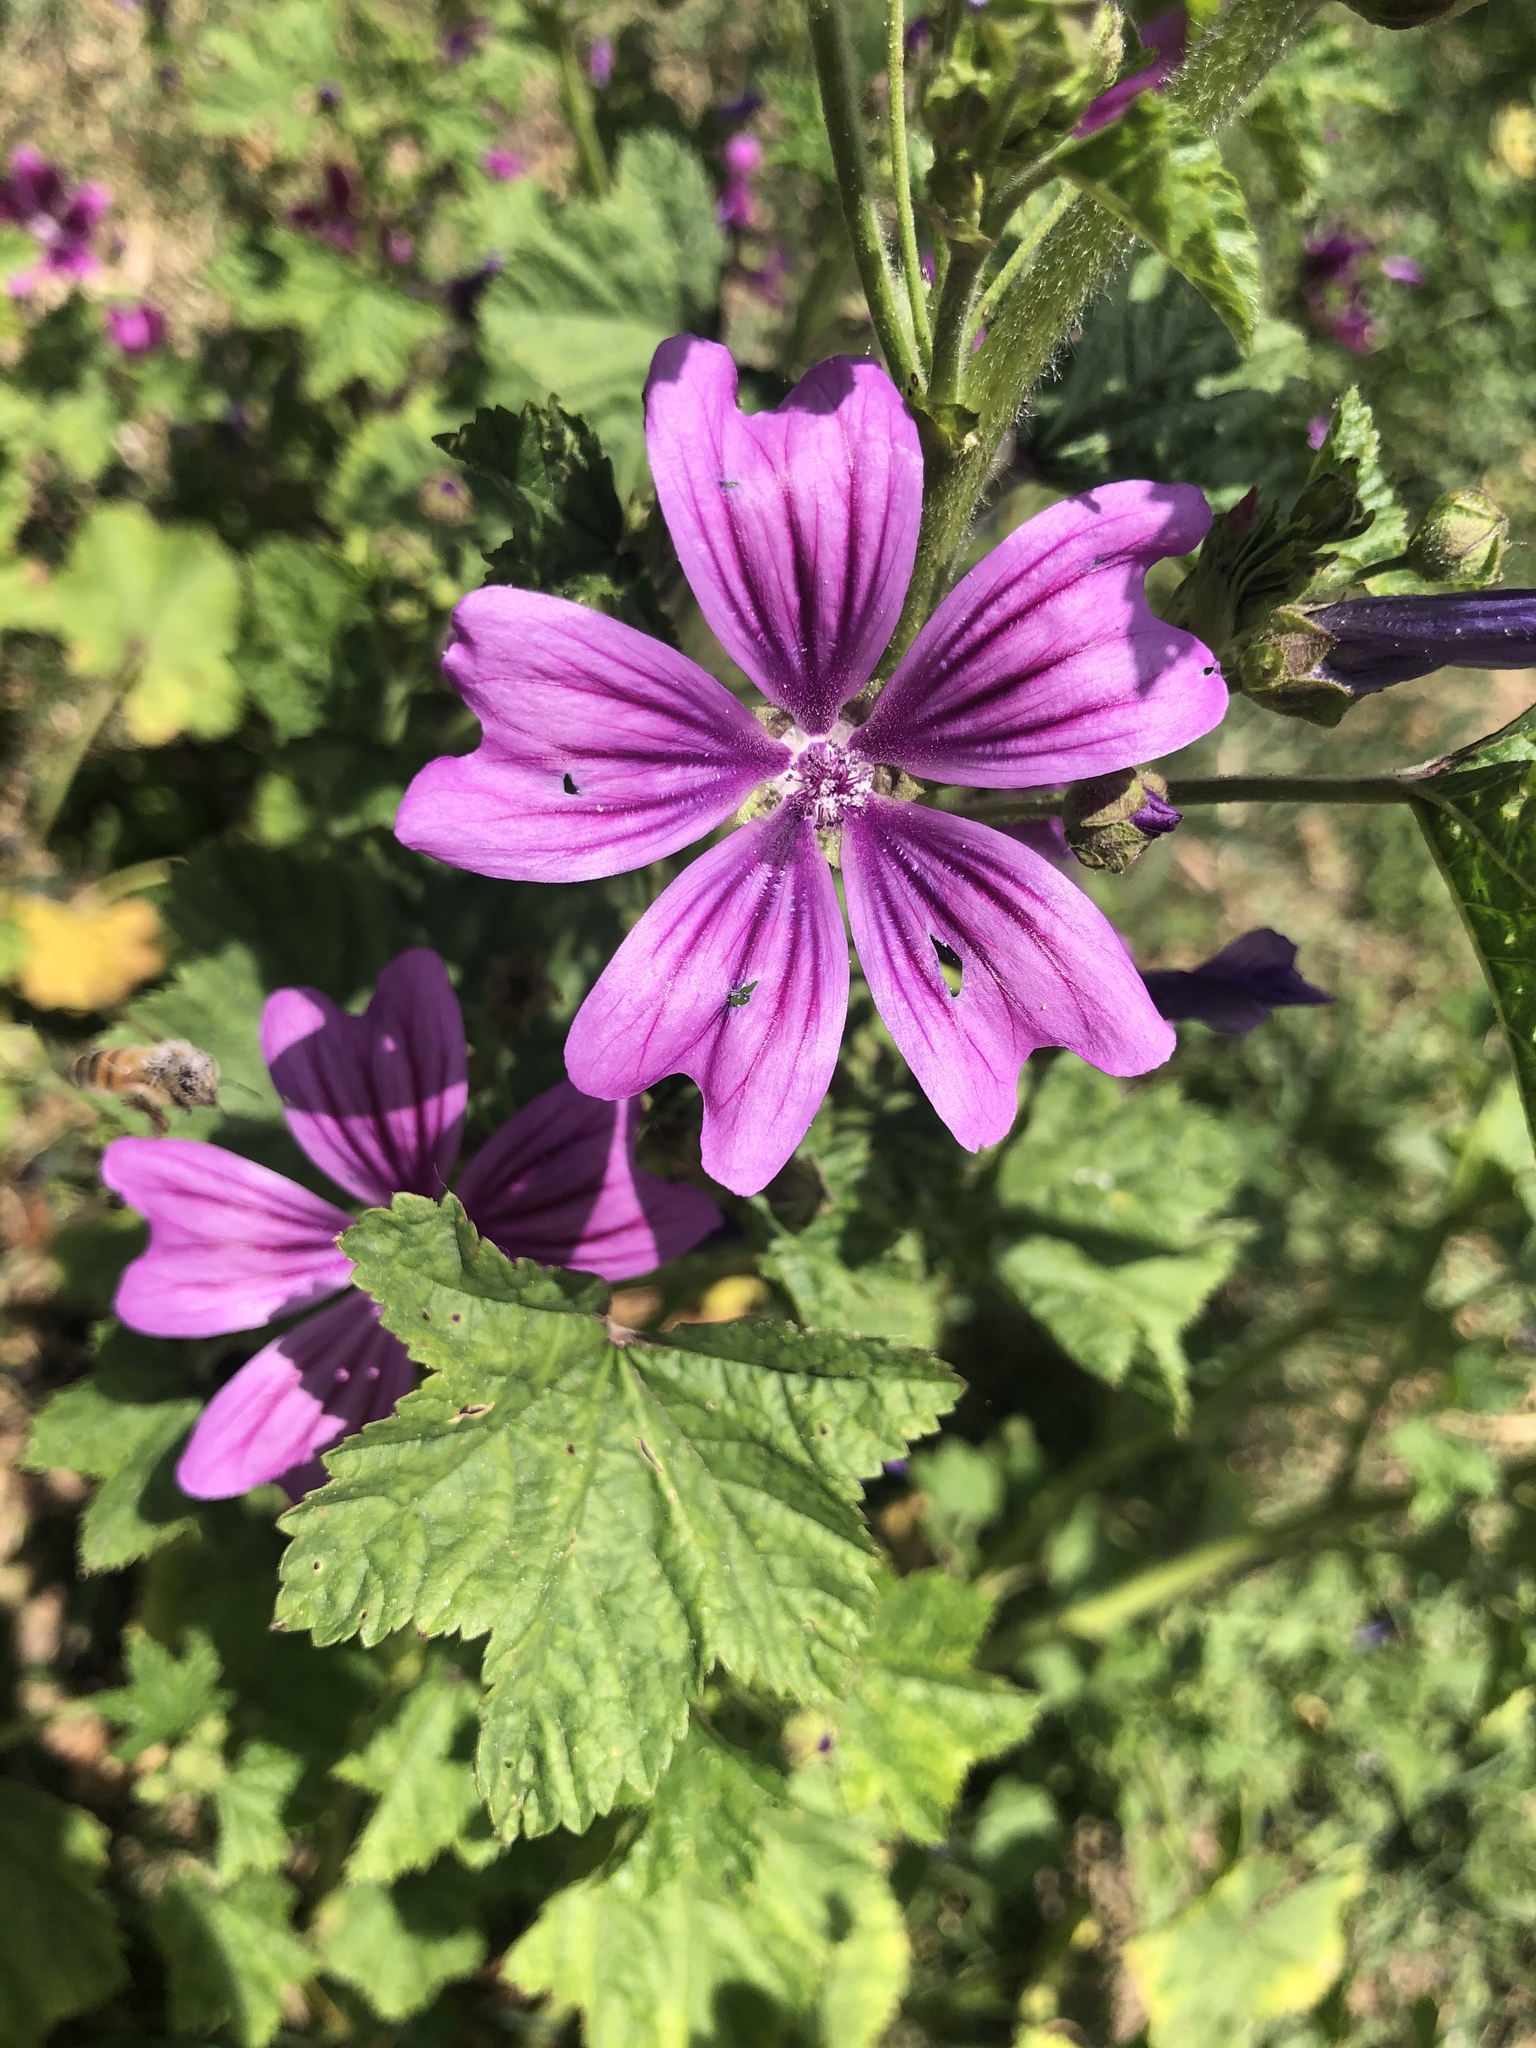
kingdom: Plantae
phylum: Tracheophyta
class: Magnoliopsida
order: Malvales
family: Malvaceae
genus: Malva
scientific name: Malva sylvestris
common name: Common mallow
